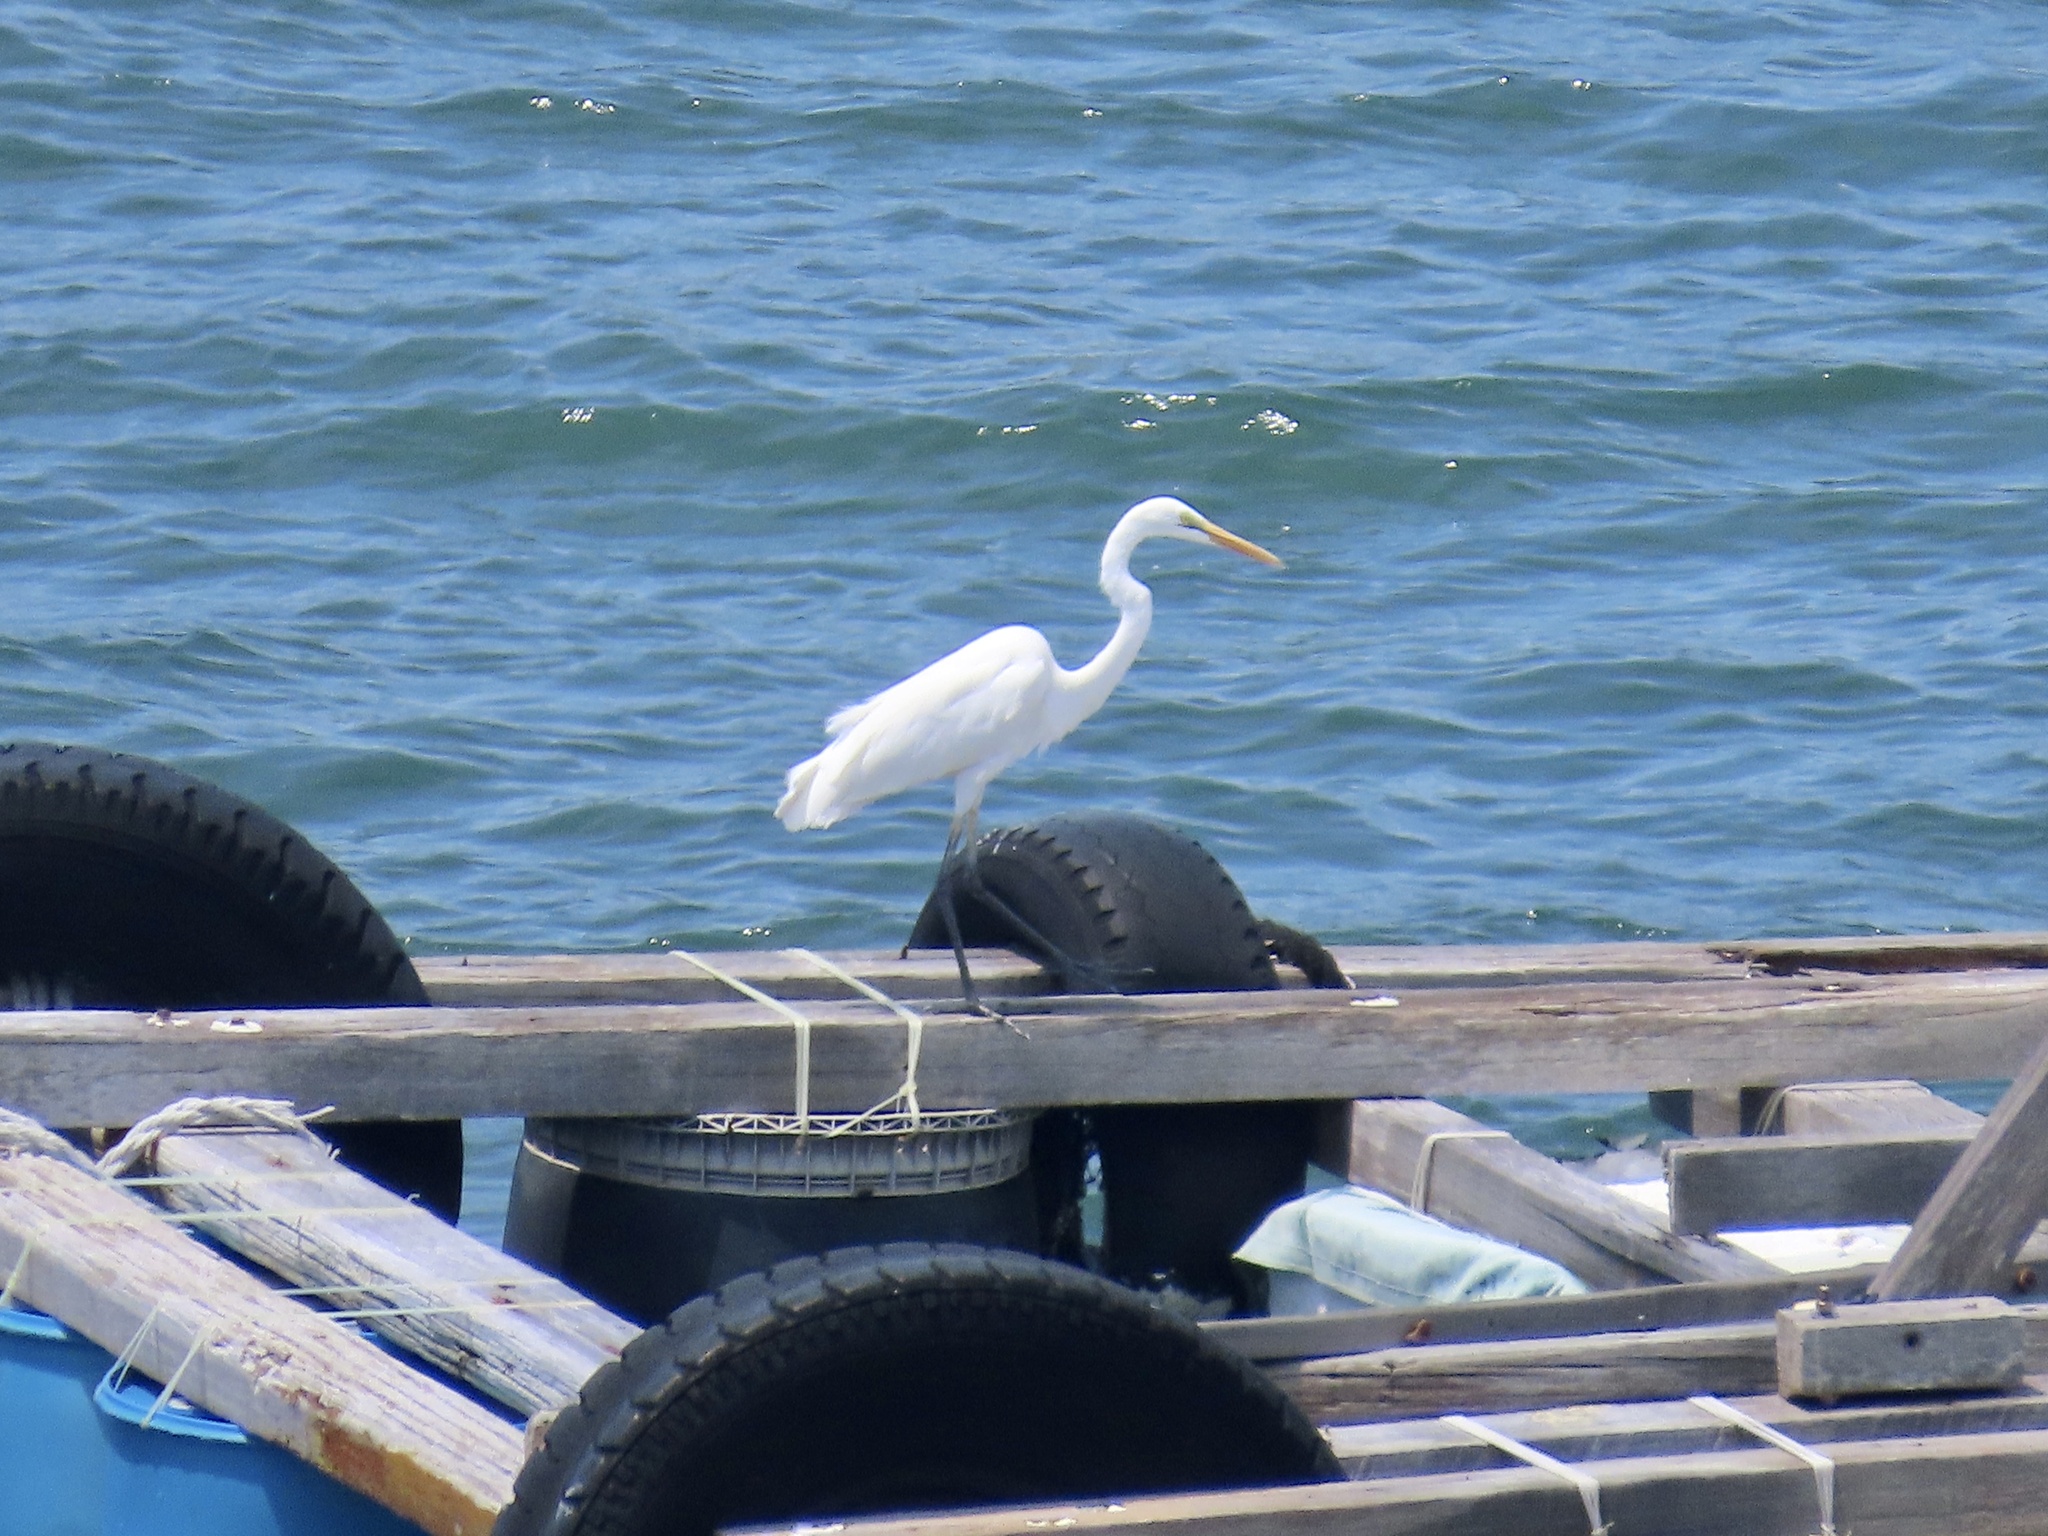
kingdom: Animalia
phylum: Chordata
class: Aves
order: Pelecaniformes
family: Ardeidae
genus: Ardea
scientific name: Ardea alba
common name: Great egret
